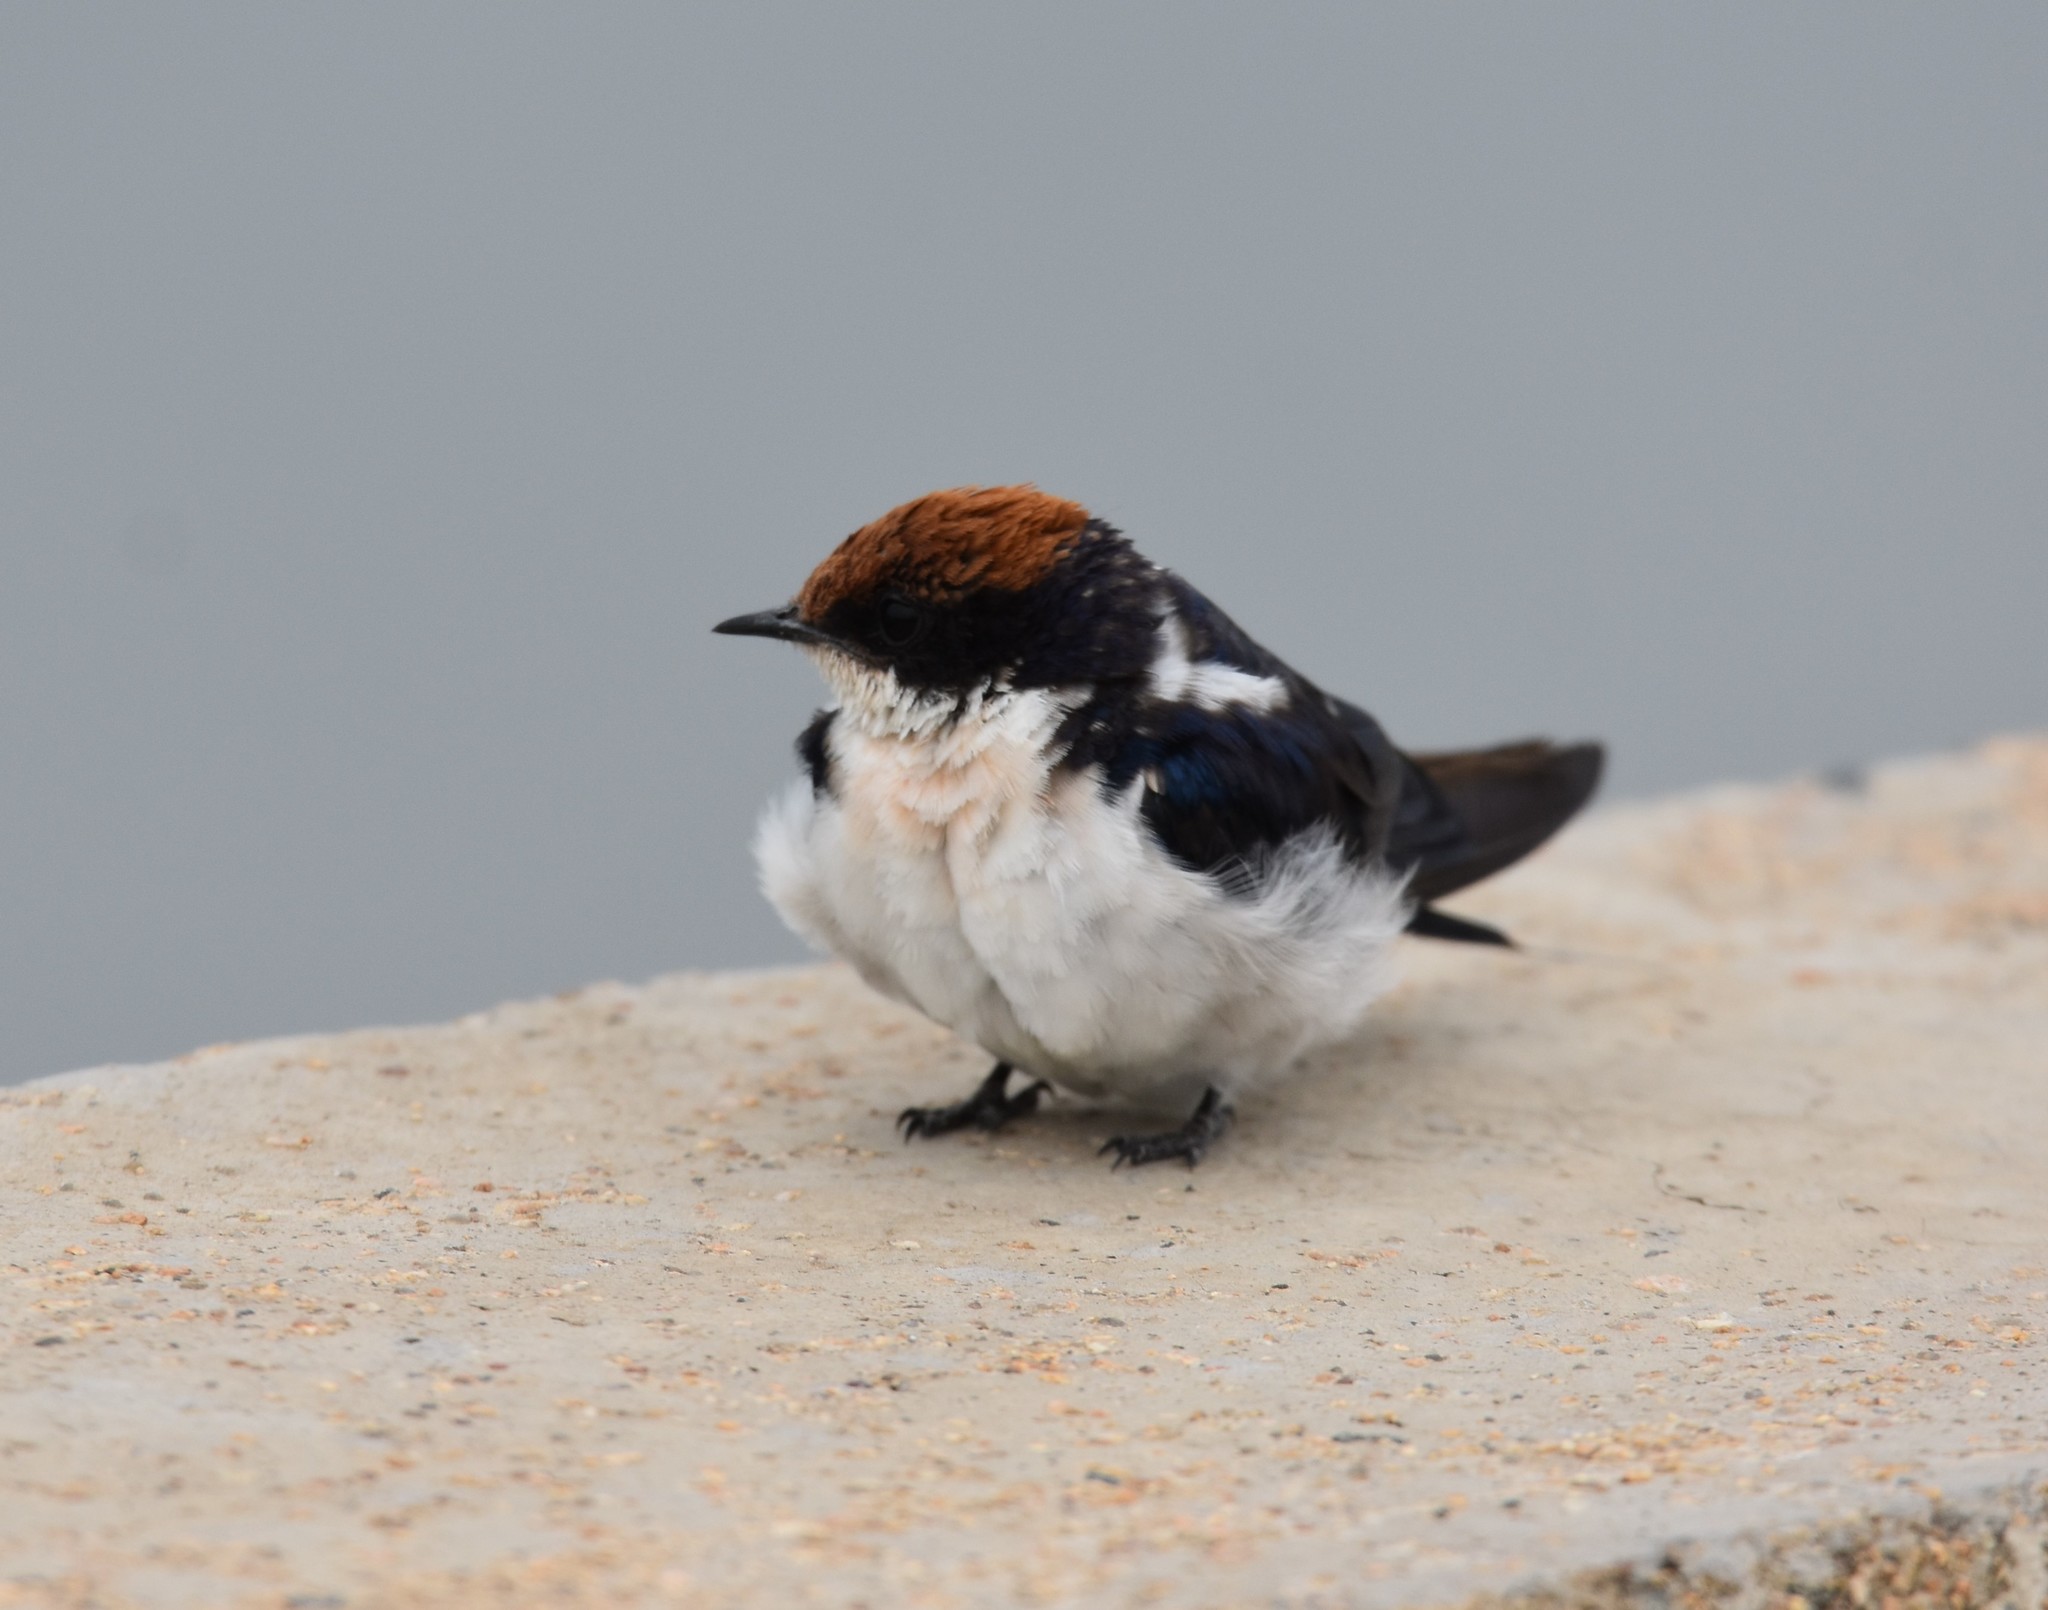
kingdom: Animalia
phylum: Chordata
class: Aves
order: Passeriformes
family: Hirundinidae
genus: Hirundo
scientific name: Hirundo smithii
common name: Wire-tailed swallow
